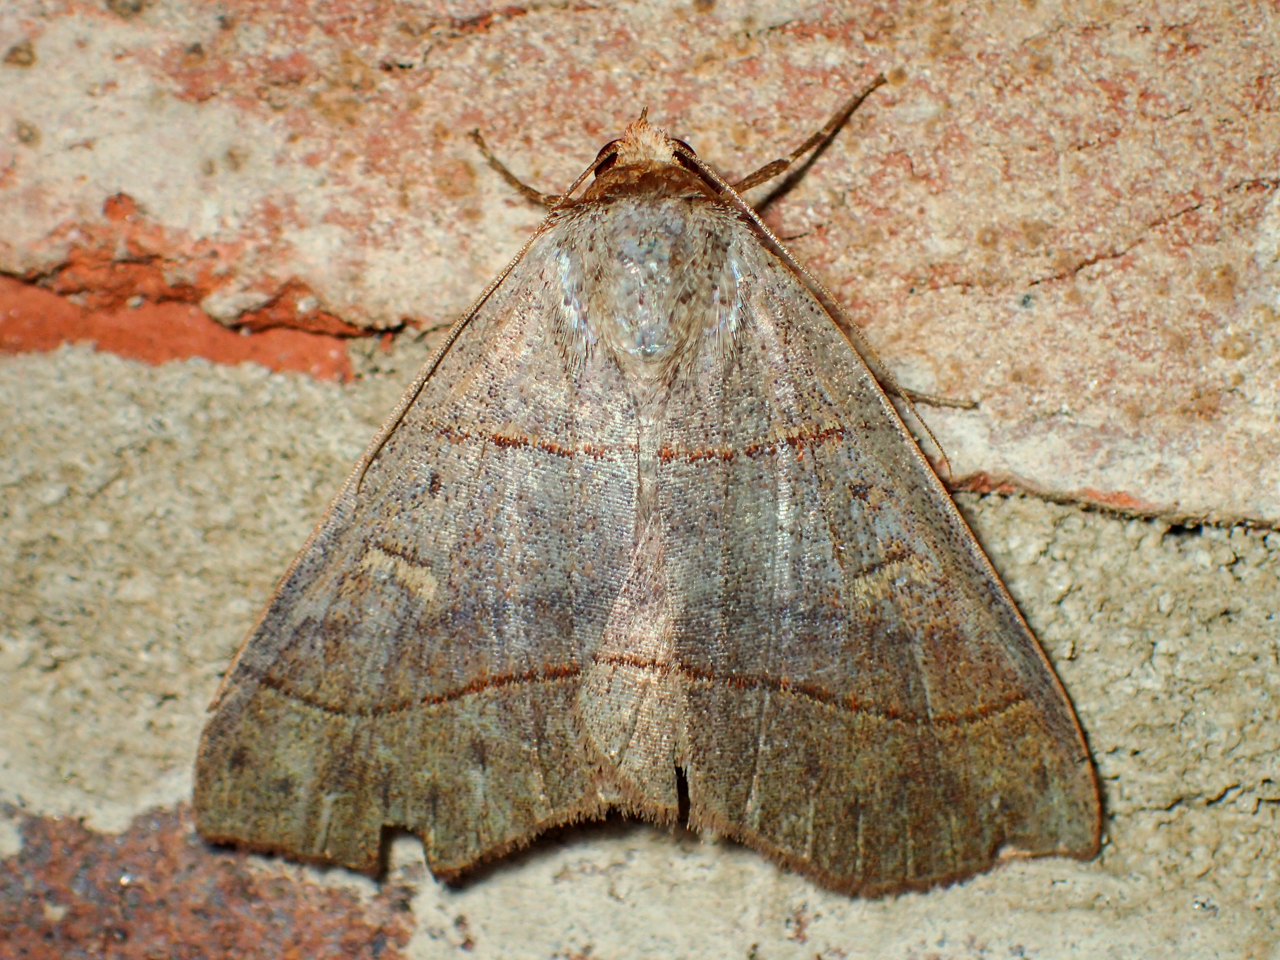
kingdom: Animalia
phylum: Arthropoda
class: Insecta
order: Lepidoptera
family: Erebidae
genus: Panopoda
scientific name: Panopoda rufimargo
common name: Red-lined panopoda moth
